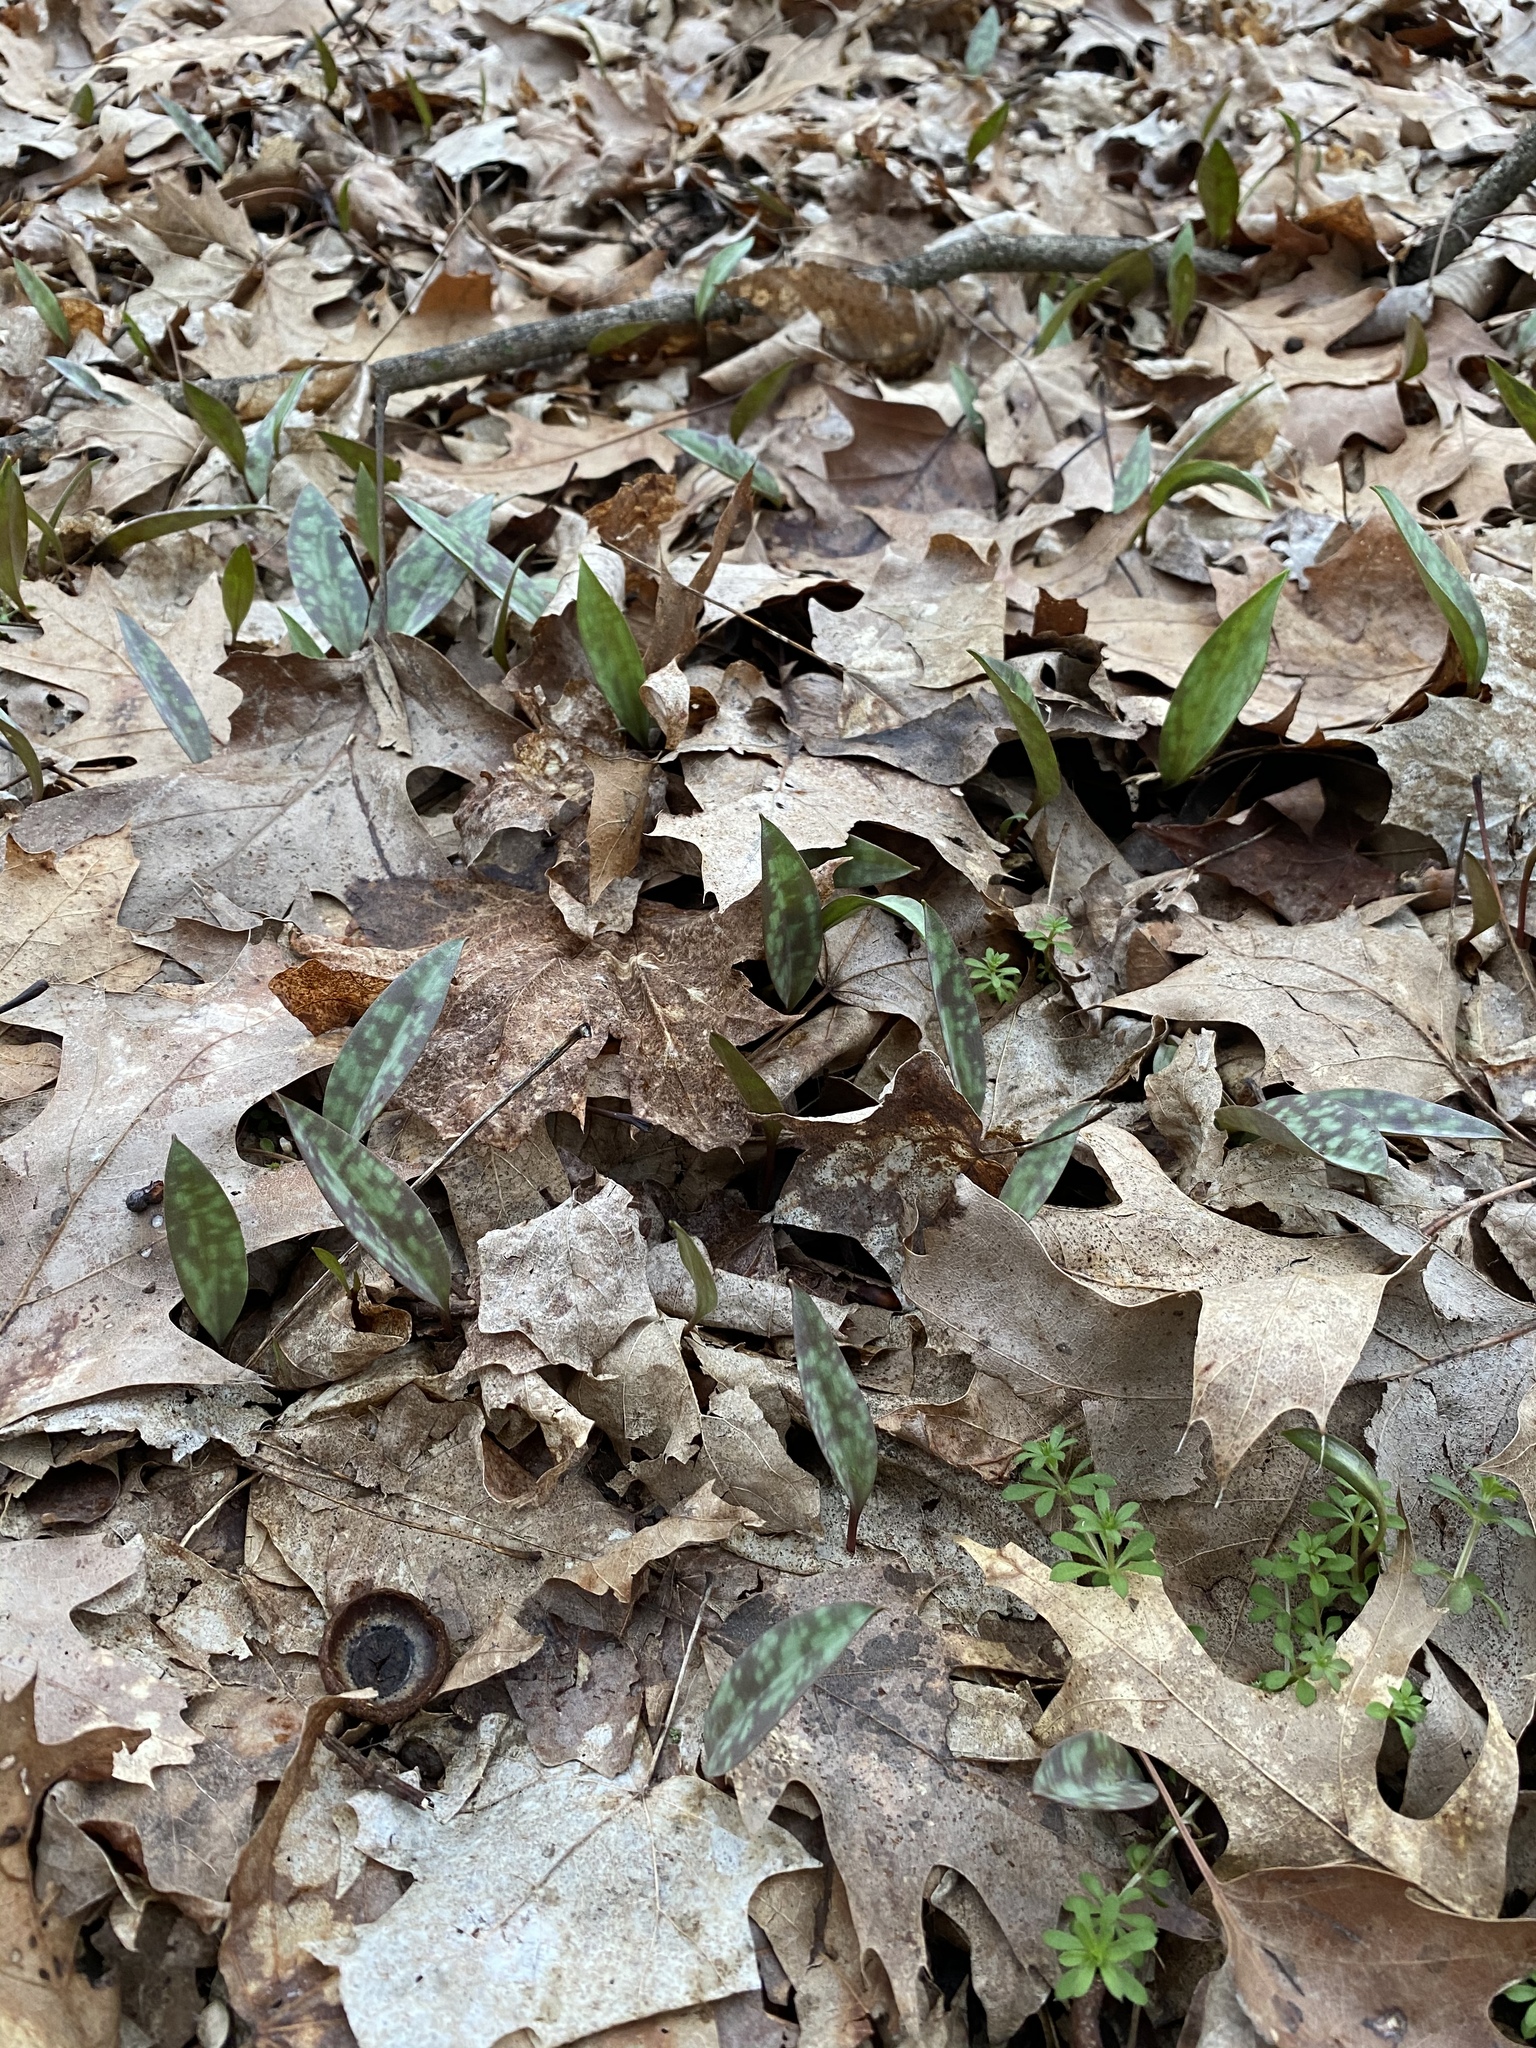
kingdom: Plantae
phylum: Tracheophyta
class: Liliopsida
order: Liliales
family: Liliaceae
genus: Erythronium
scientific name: Erythronium americanum
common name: Yellow adder's-tongue
